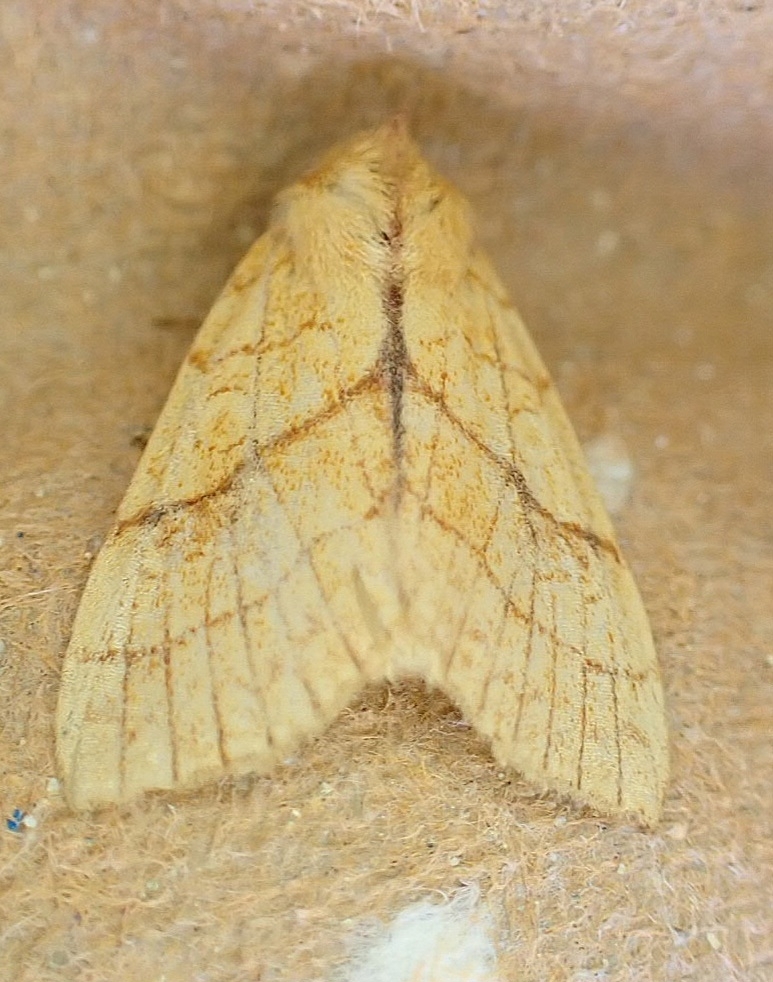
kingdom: Animalia
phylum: Arthropoda
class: Insecta
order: Lepidoptera
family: Noctuidae
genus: Tiliacea
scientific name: Tiliacea citrago
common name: Orange sallow
